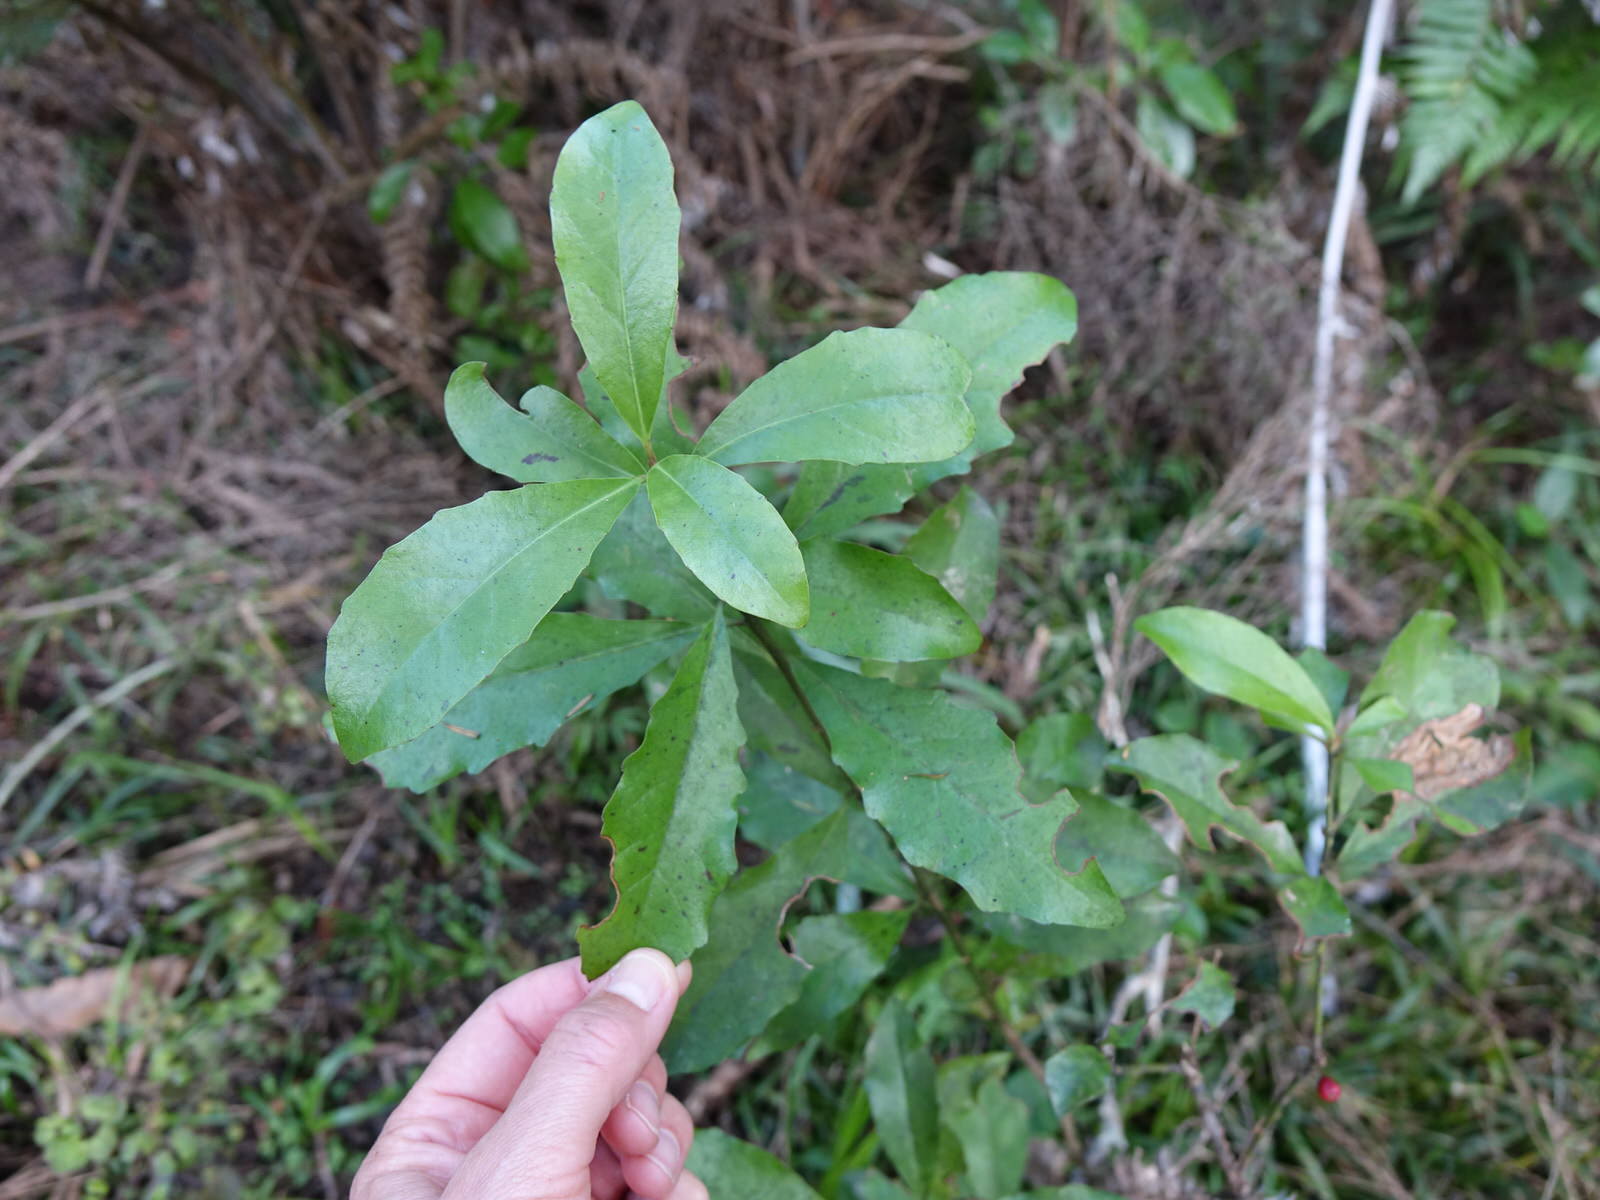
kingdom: Plantae
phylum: Tracheophyta
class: Magnoliopsida
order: Asterales
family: Alseuosmiaceae
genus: Alseuosmia
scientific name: Alseuosmia macrophylla
